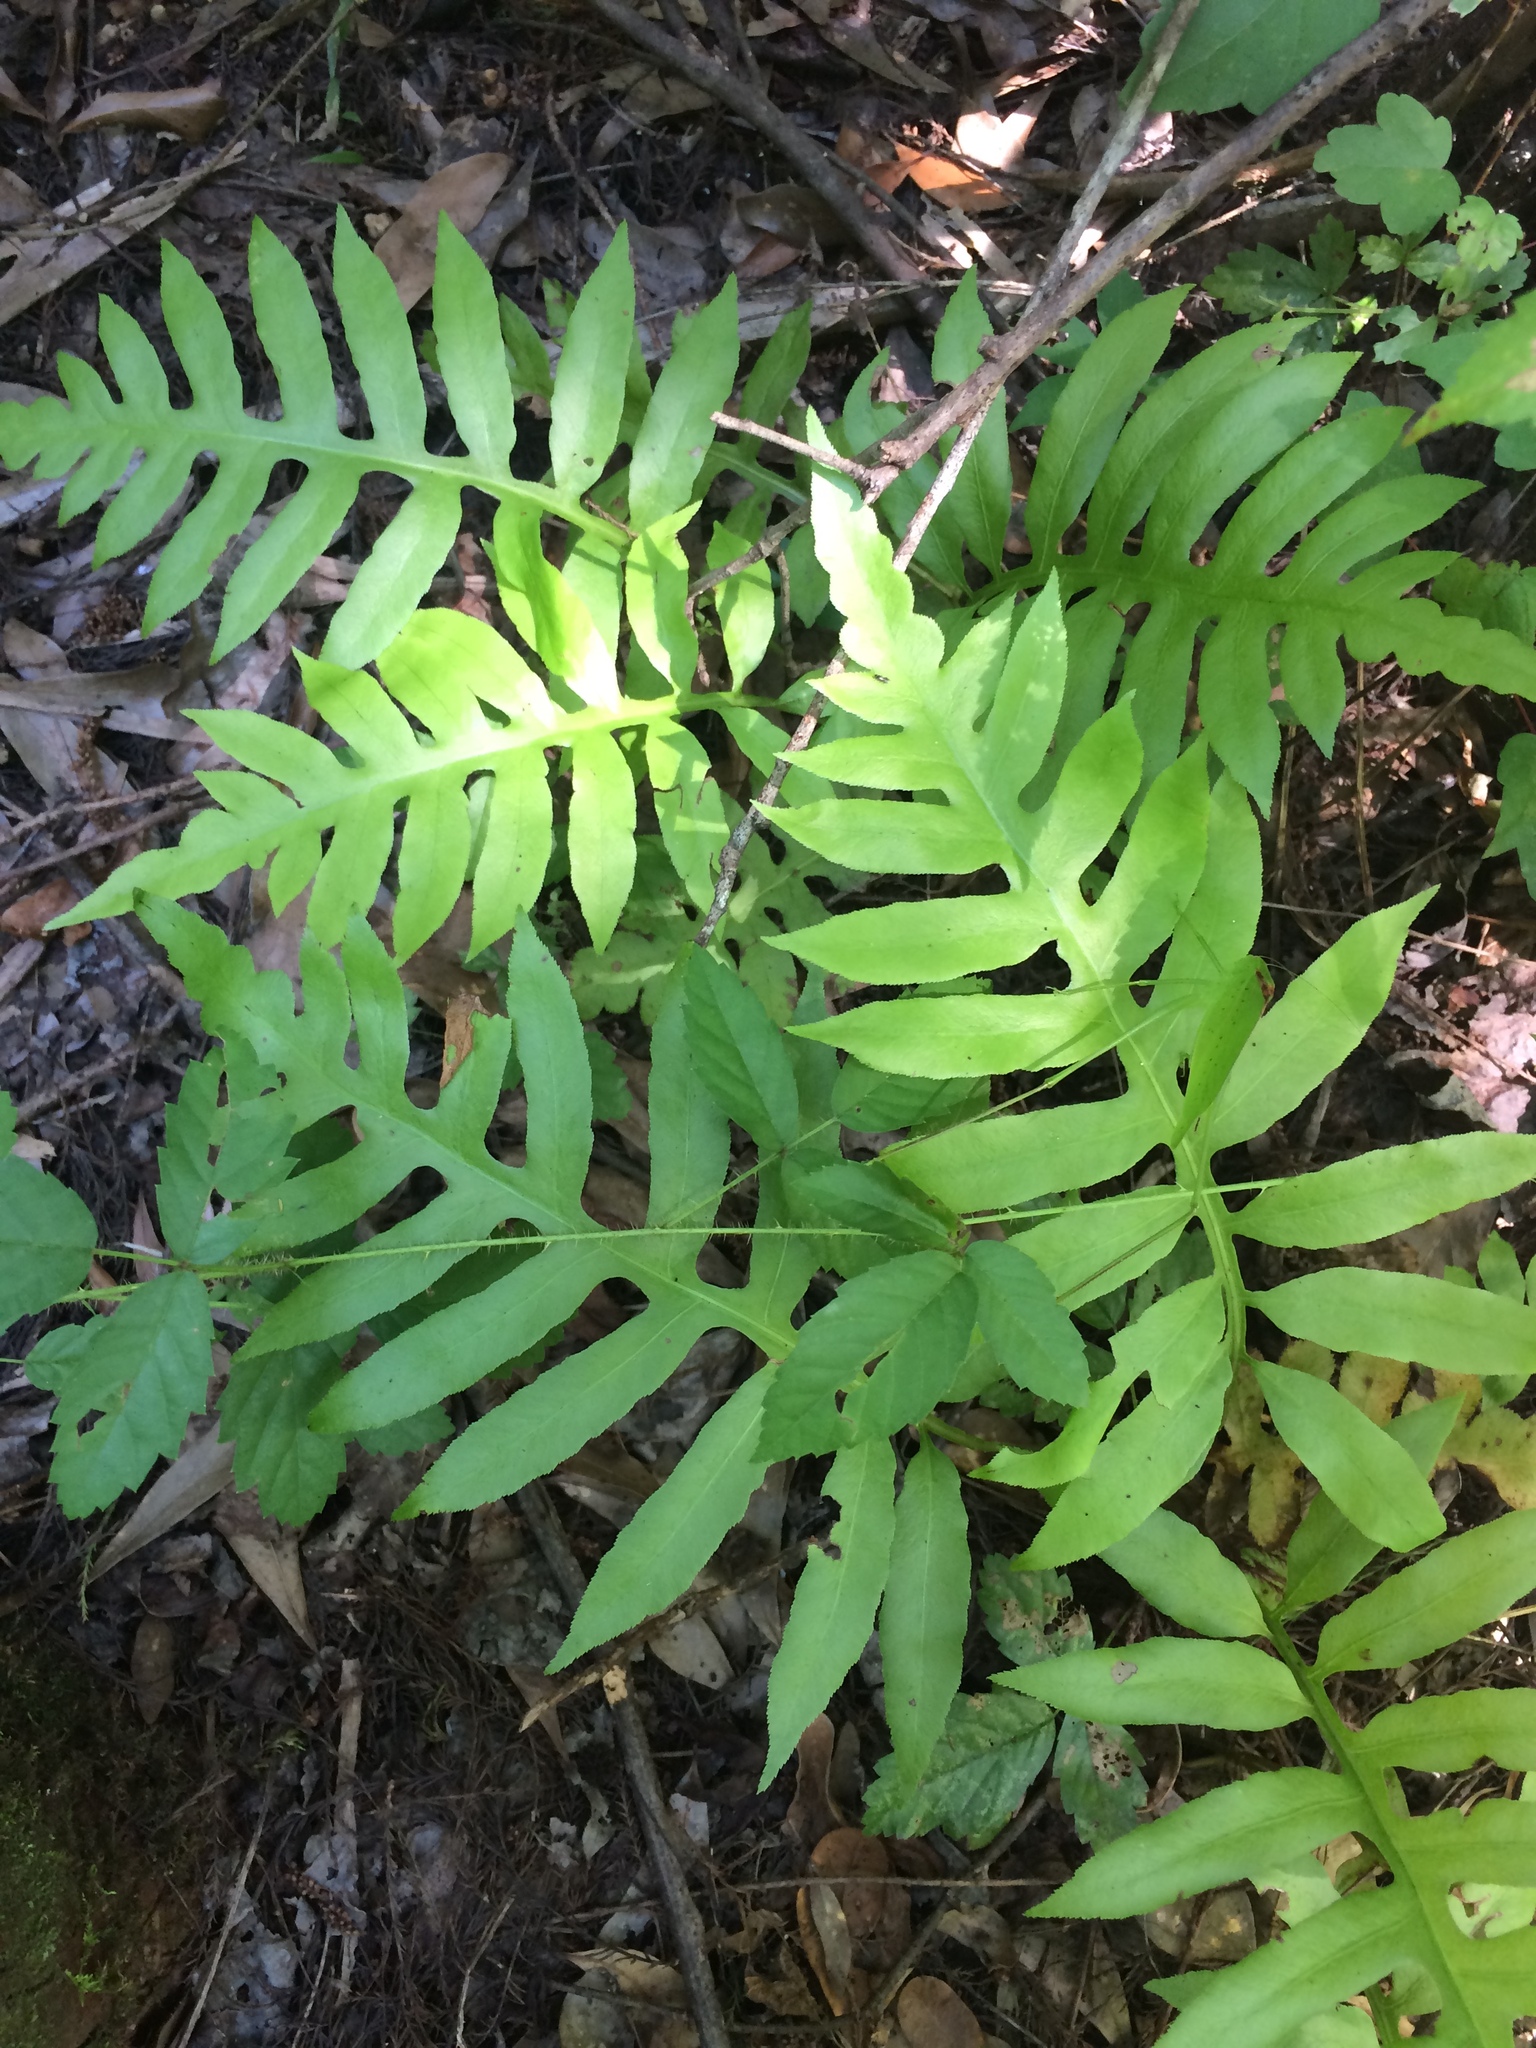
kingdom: Plantae
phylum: Tracheophyta
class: Polypodiopsida
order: Polypodiales
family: Blechnaceae
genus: Lorinseria
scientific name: Lorinseria areolata
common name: Dwarf chain fern
